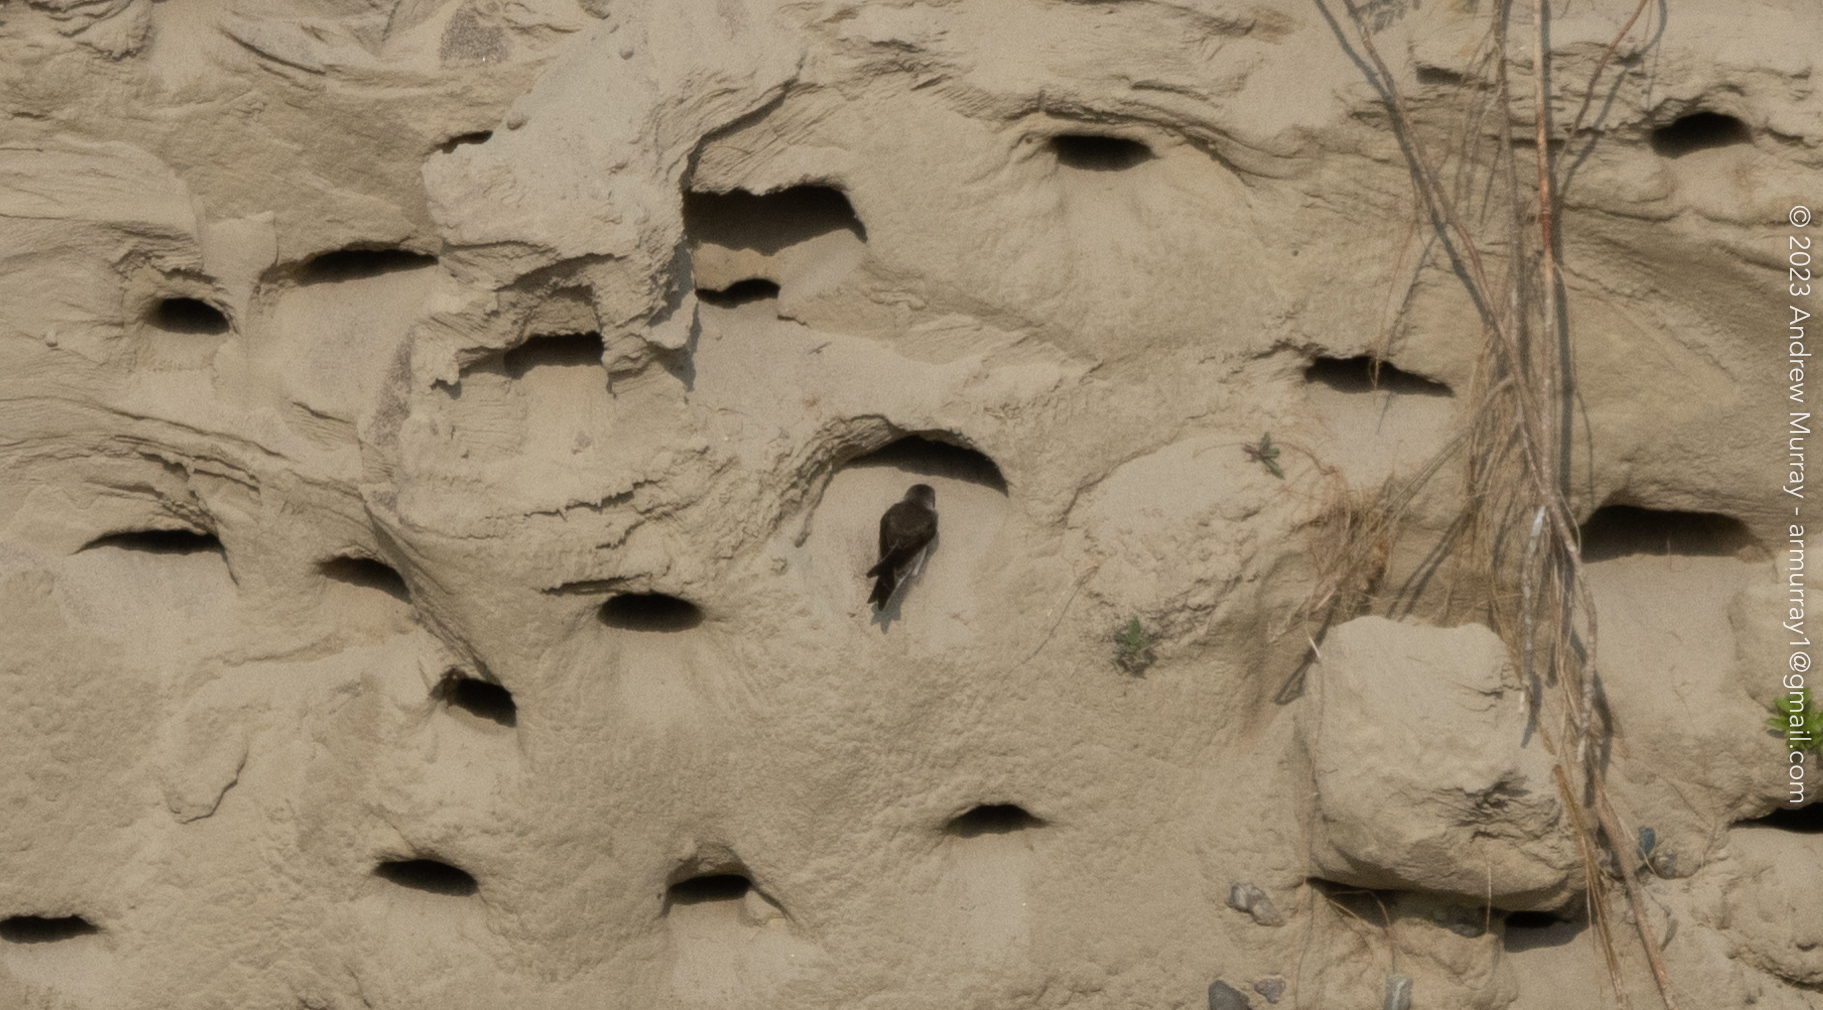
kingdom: Animalia
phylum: Chordata
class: Aves
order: Passeriformes
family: Hirundinidae
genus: Riparia
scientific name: Riparia riparia
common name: Sand martin
